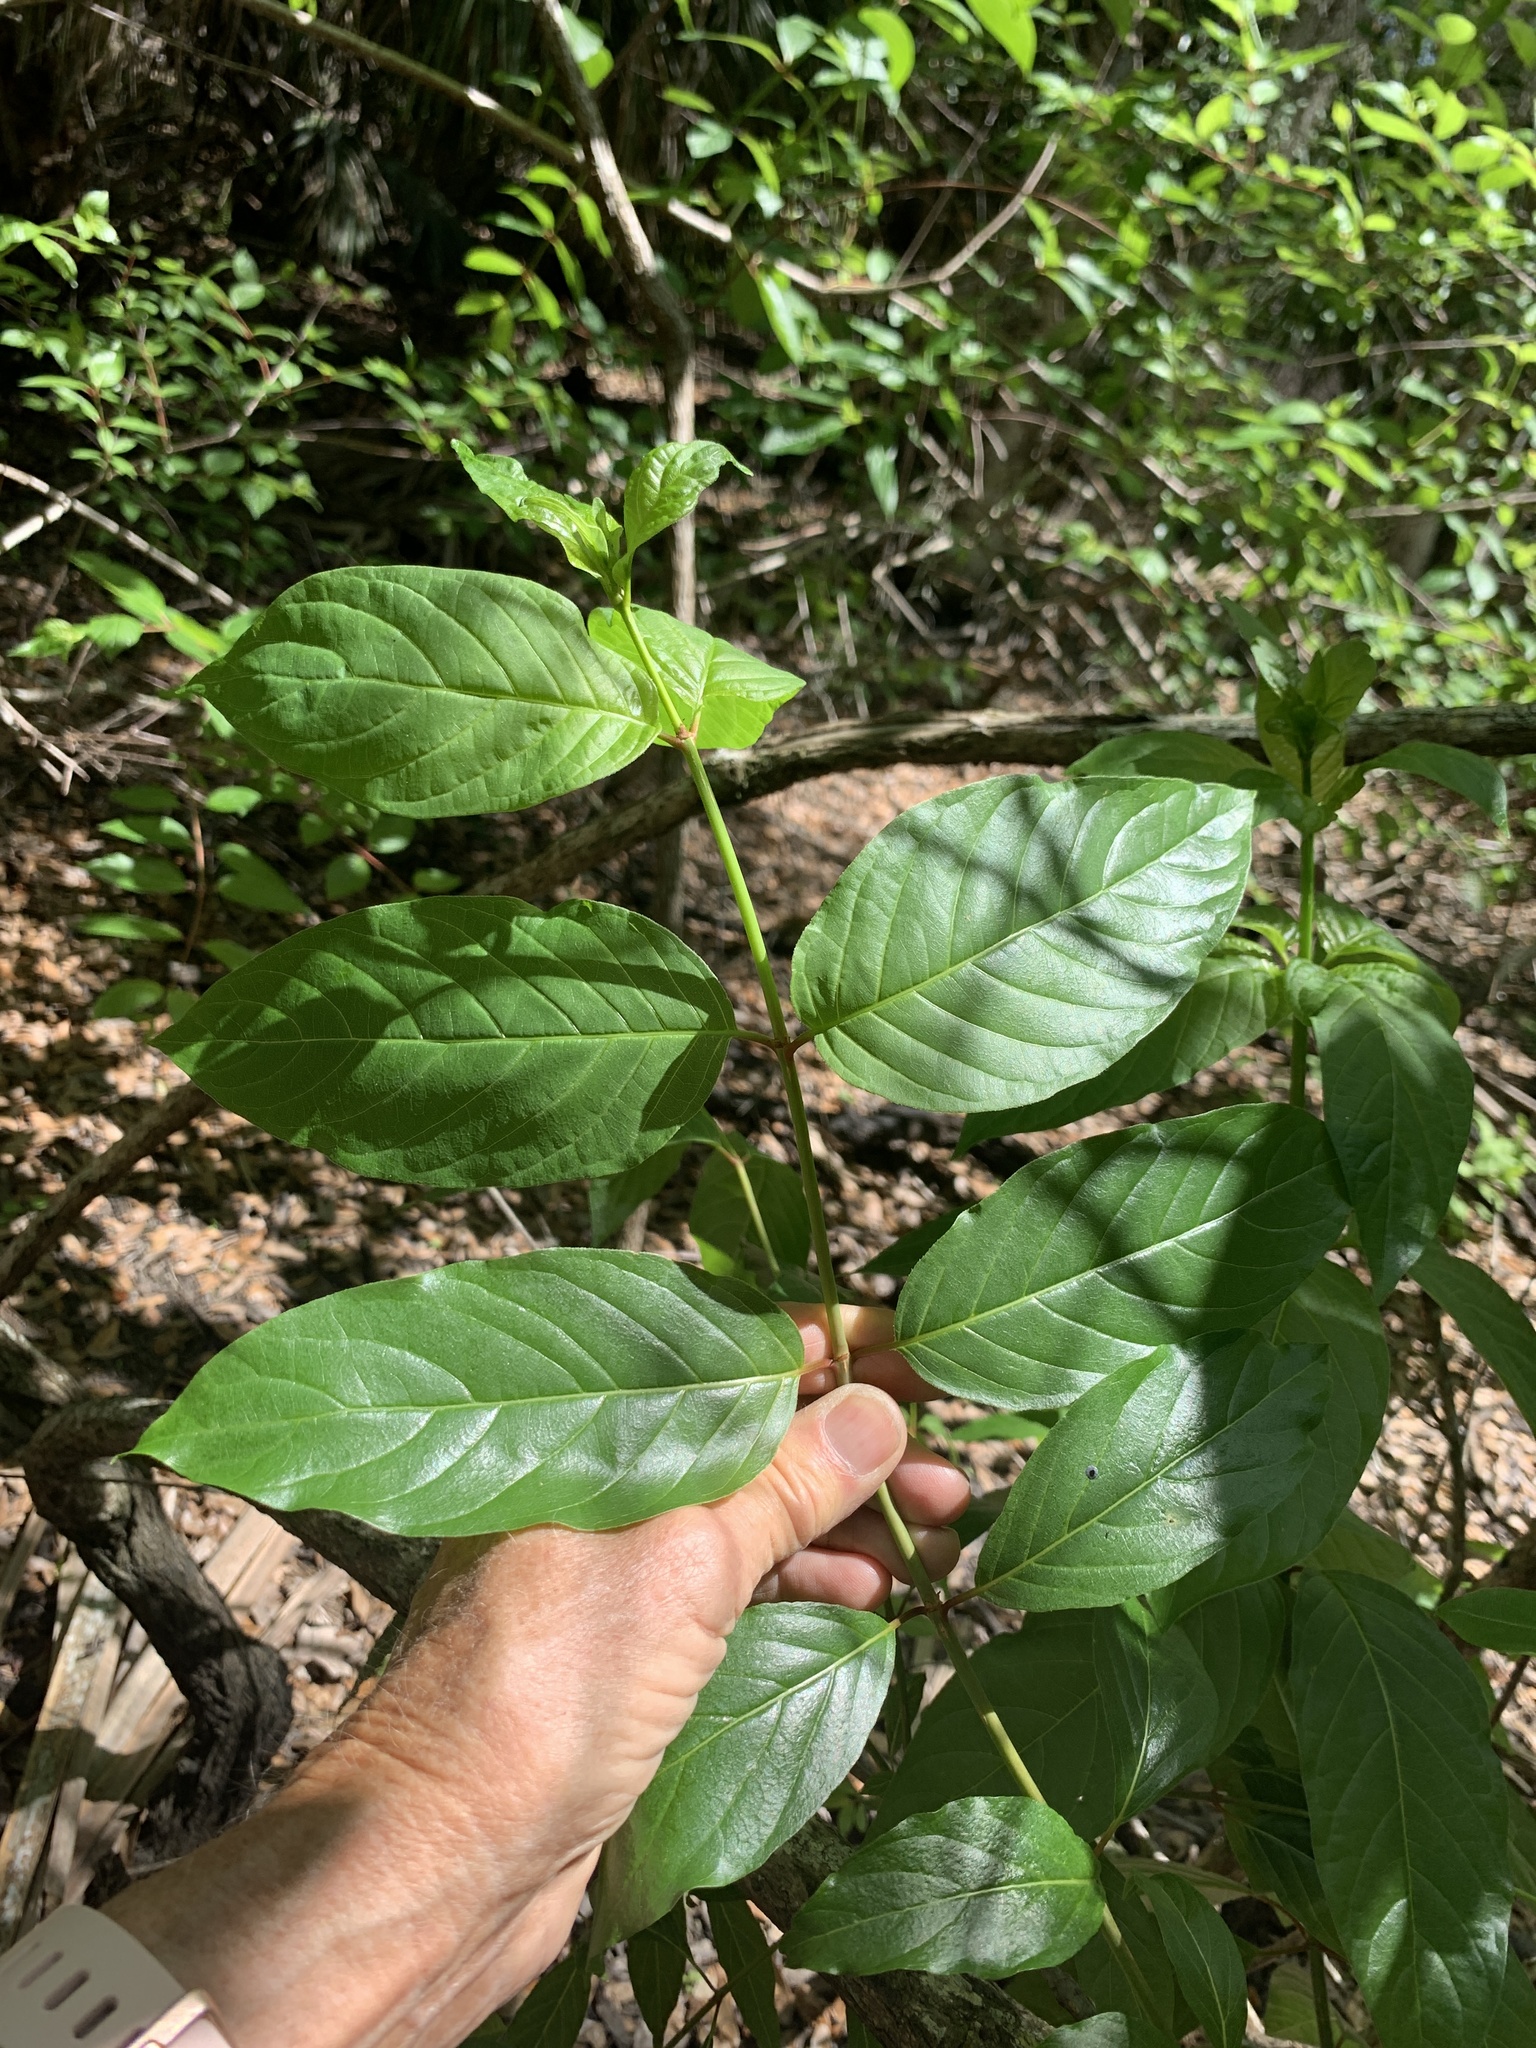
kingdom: Plantae
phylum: Tracheophyta
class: Magnoliopsida
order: Gentianales
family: Rubiaceae
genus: Cephalanthus
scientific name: Cephalanthus occidentalis
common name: Button-willow
